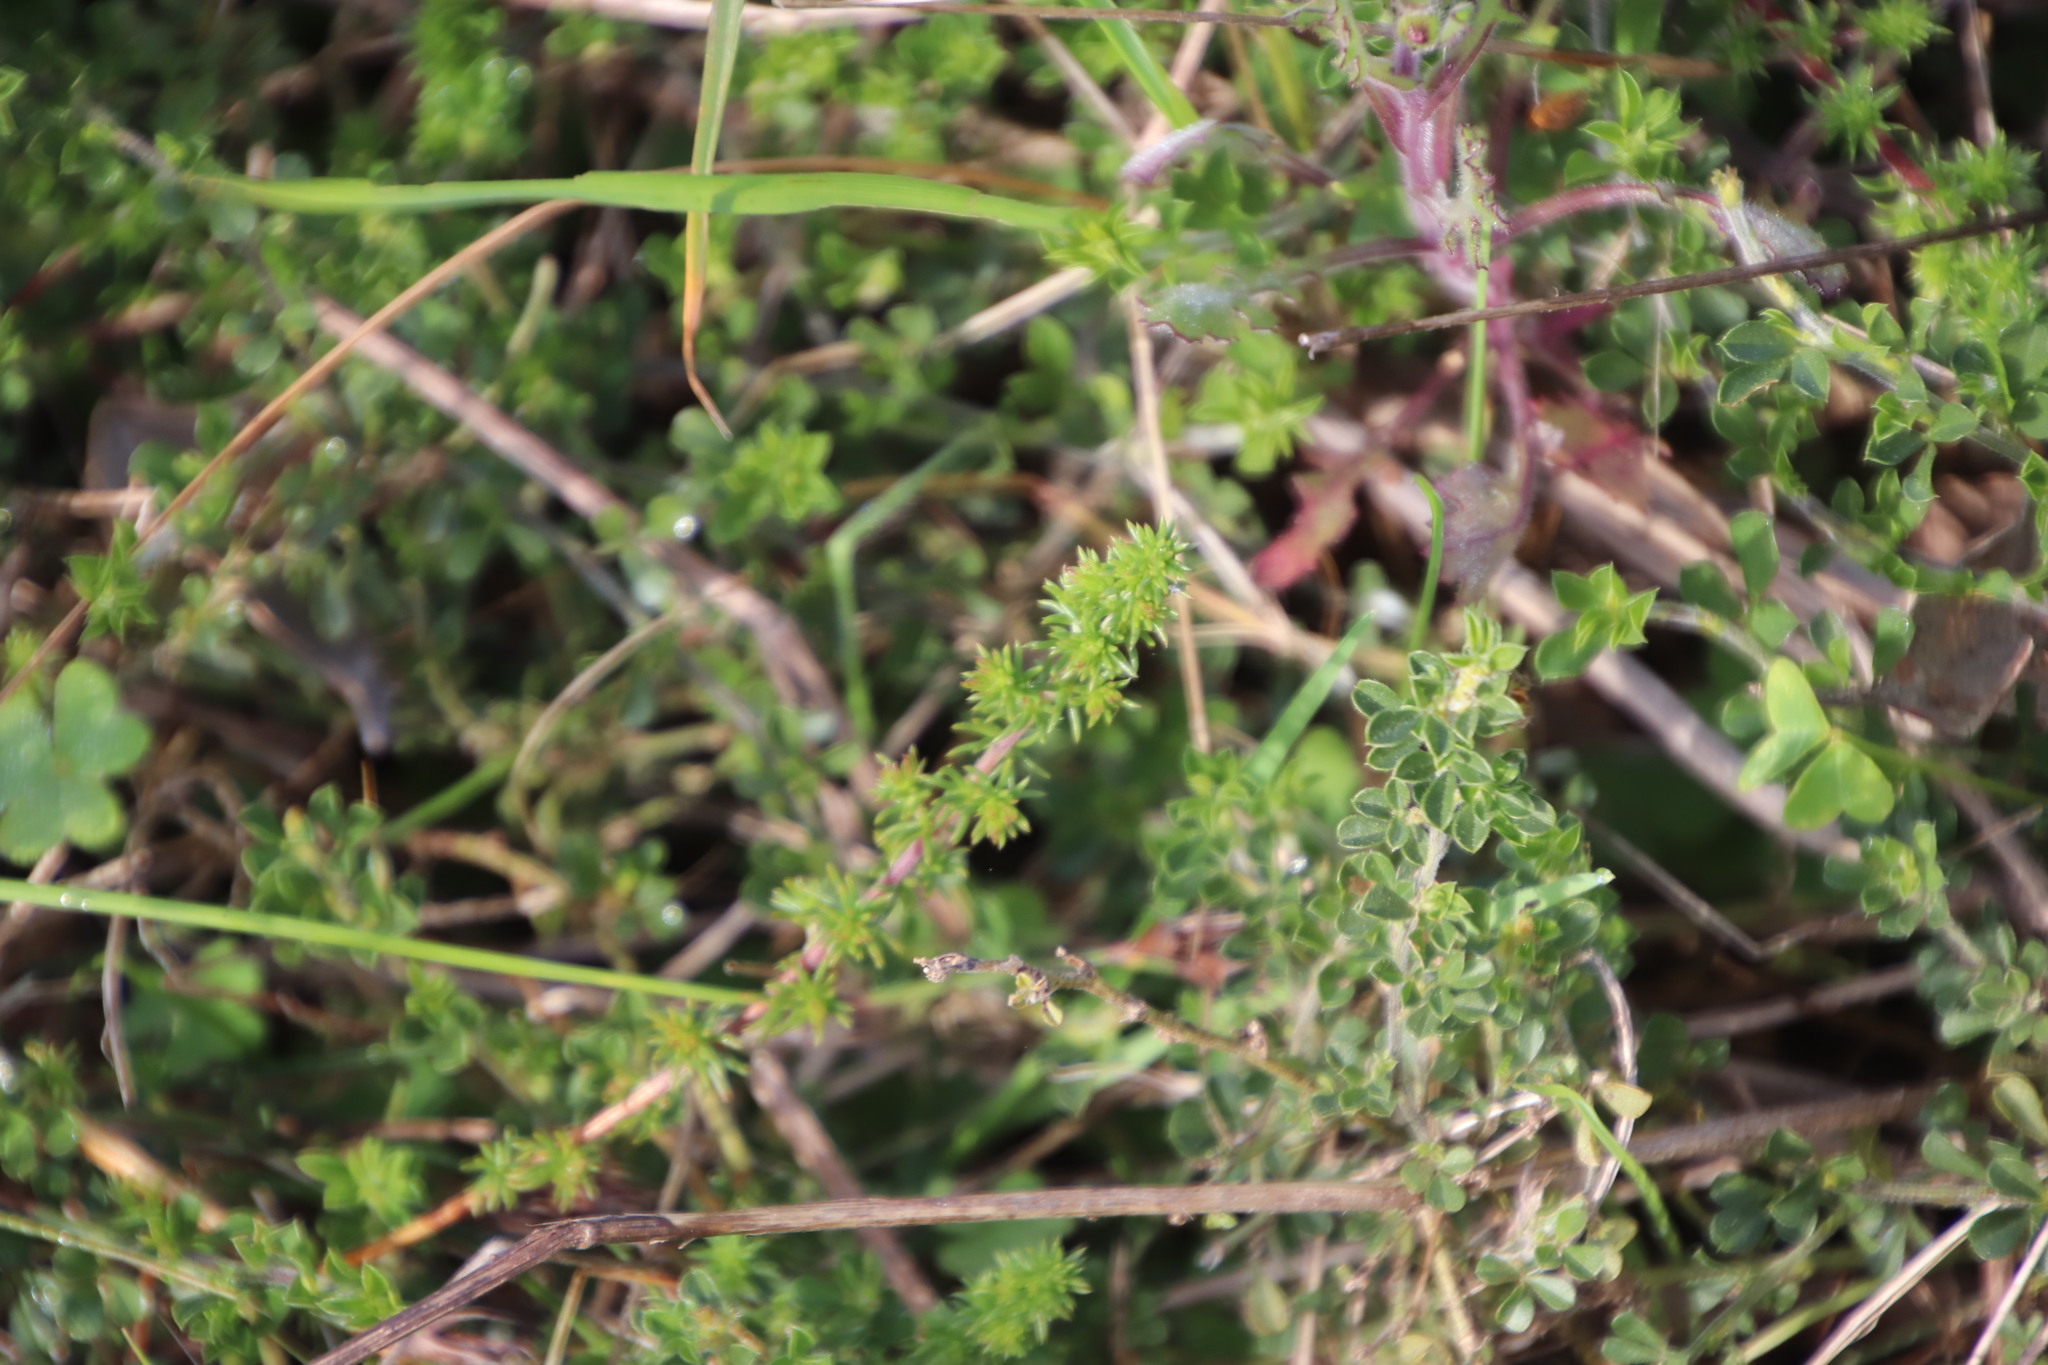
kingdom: Plantae
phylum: Tracheophyta
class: Magnoliopsida
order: Fabales
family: Fabaceae
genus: Aspalathus
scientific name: Aspalathus divaricata
